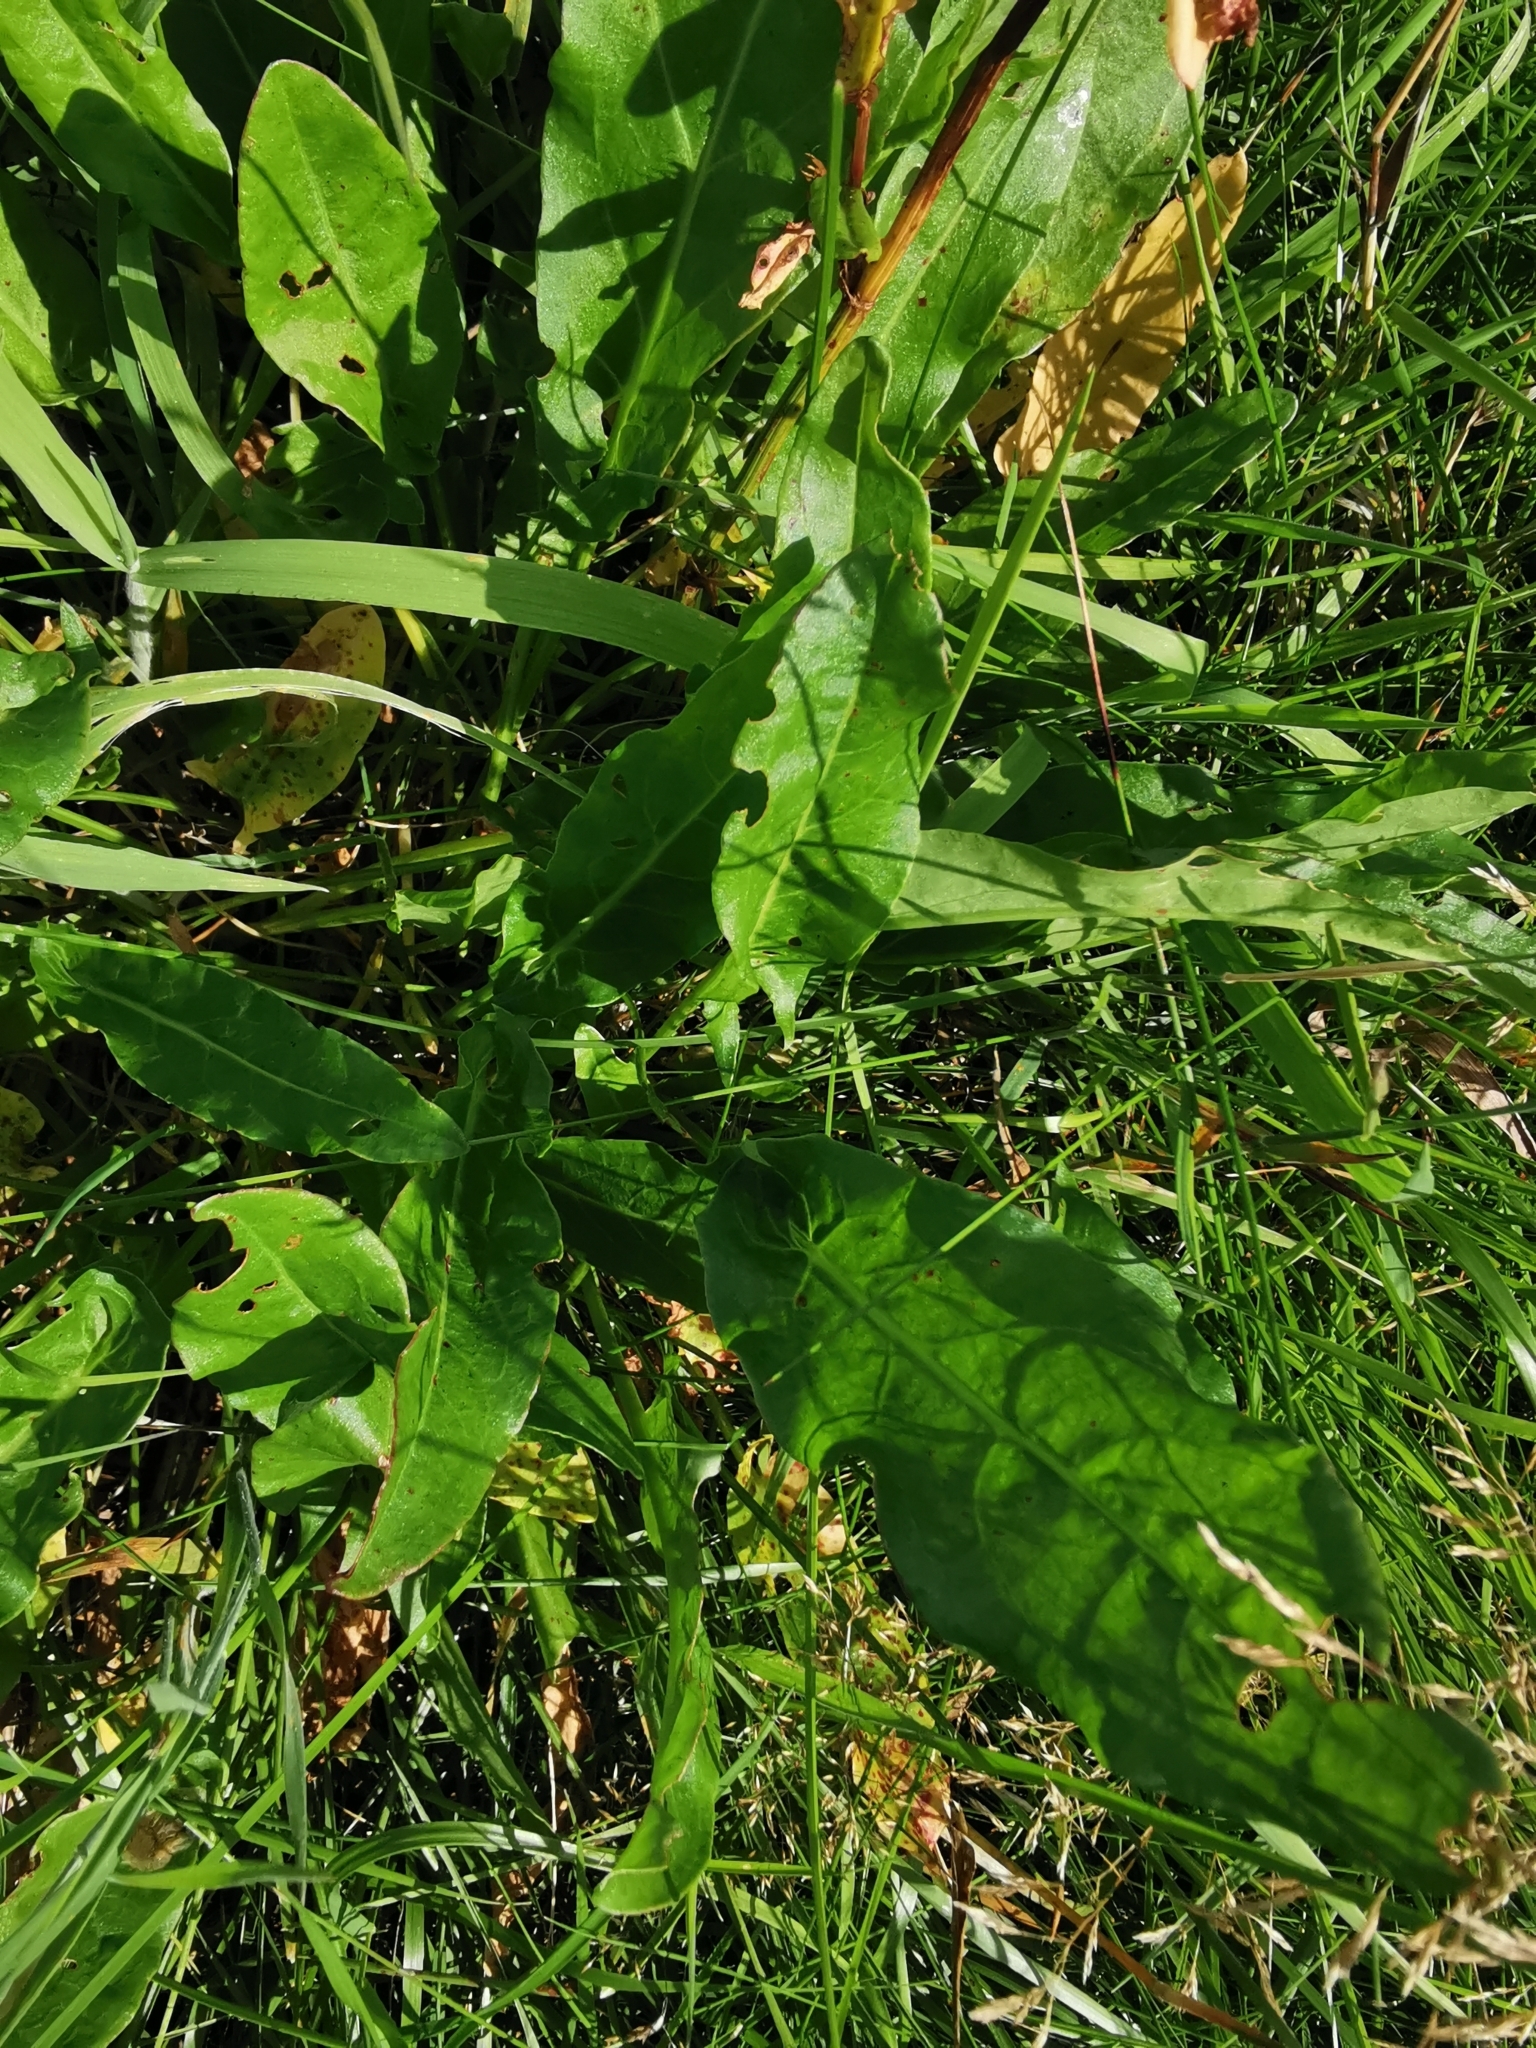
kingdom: Plantae
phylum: Tracheophyta
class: Magnoliopsida
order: Caryophyllales
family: Polygonaceae
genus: Rumex
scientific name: Rumex acetosa
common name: Garden sorrel
